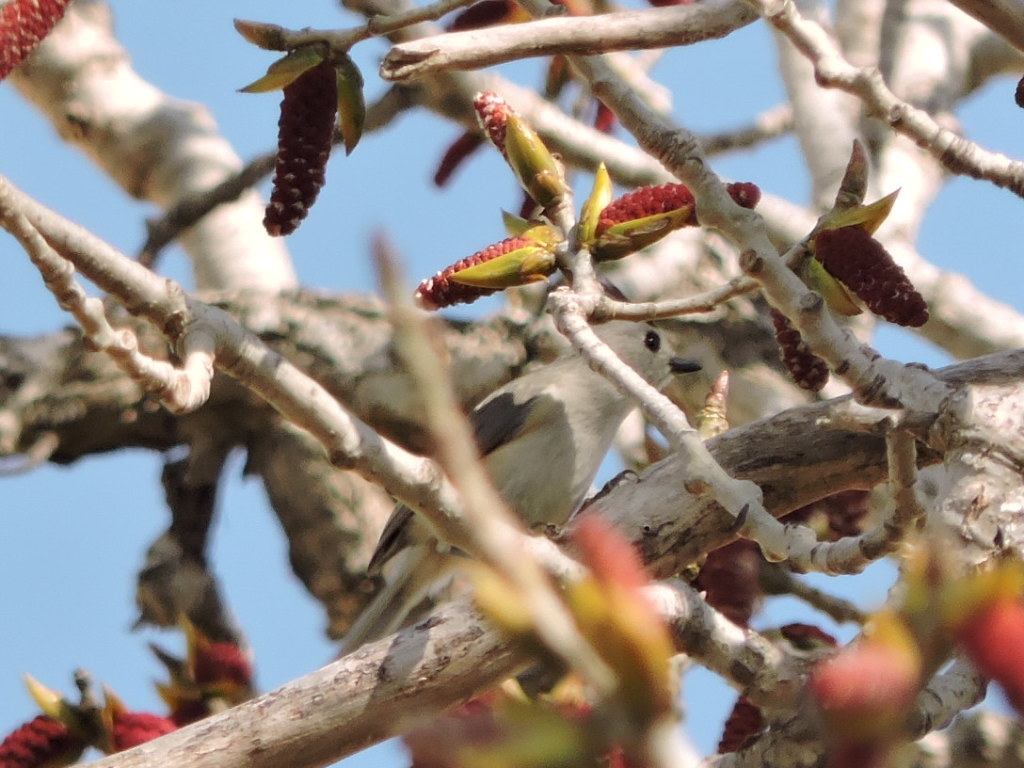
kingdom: Animalia
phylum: Chordata
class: Aves
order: Passeriformes
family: Paridae
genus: Baeolophus
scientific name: Baeolophus atricristatus
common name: Black-crested titmouse
